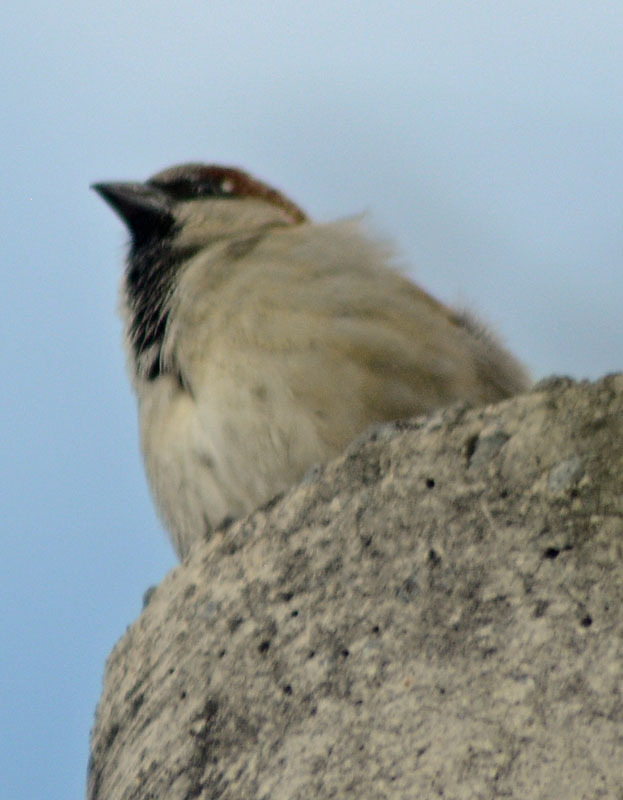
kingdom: Animalia
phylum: Chordata
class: Aves
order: Passeriformes
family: Passeridae
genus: Passer
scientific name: Passer domesticus
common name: House sparrow
